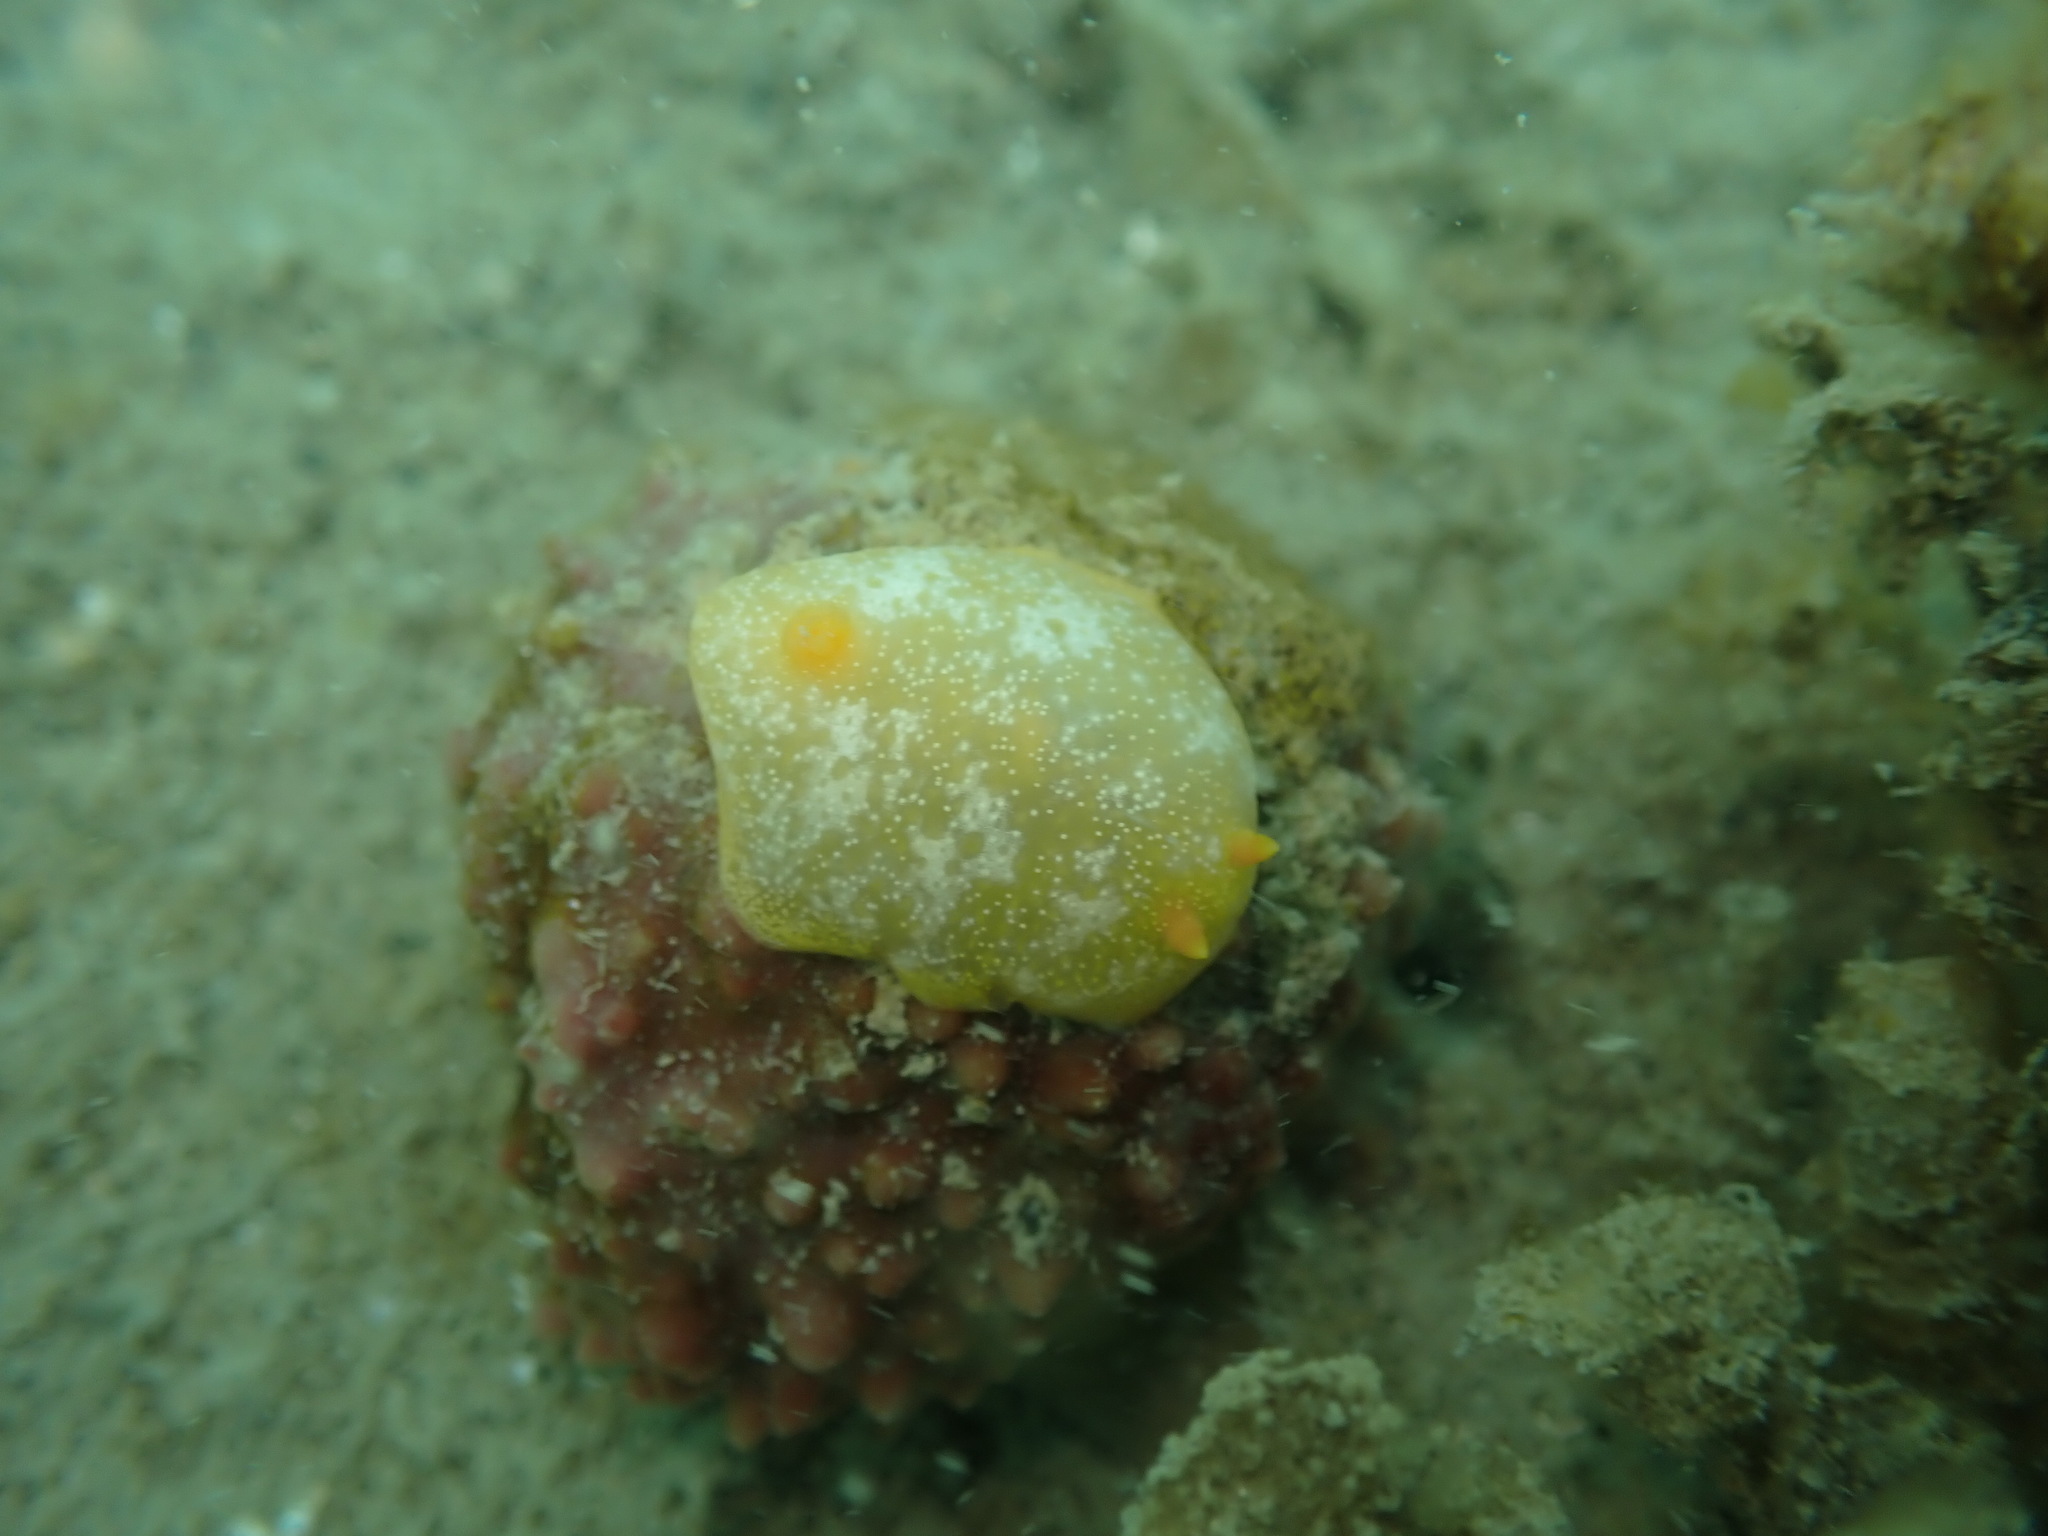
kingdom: Animalia
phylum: Mollusca
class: Gastropoda
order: Nudibranchia
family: Dendrodorididae
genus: Dendrodoris
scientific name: Dendrodoris citrina
